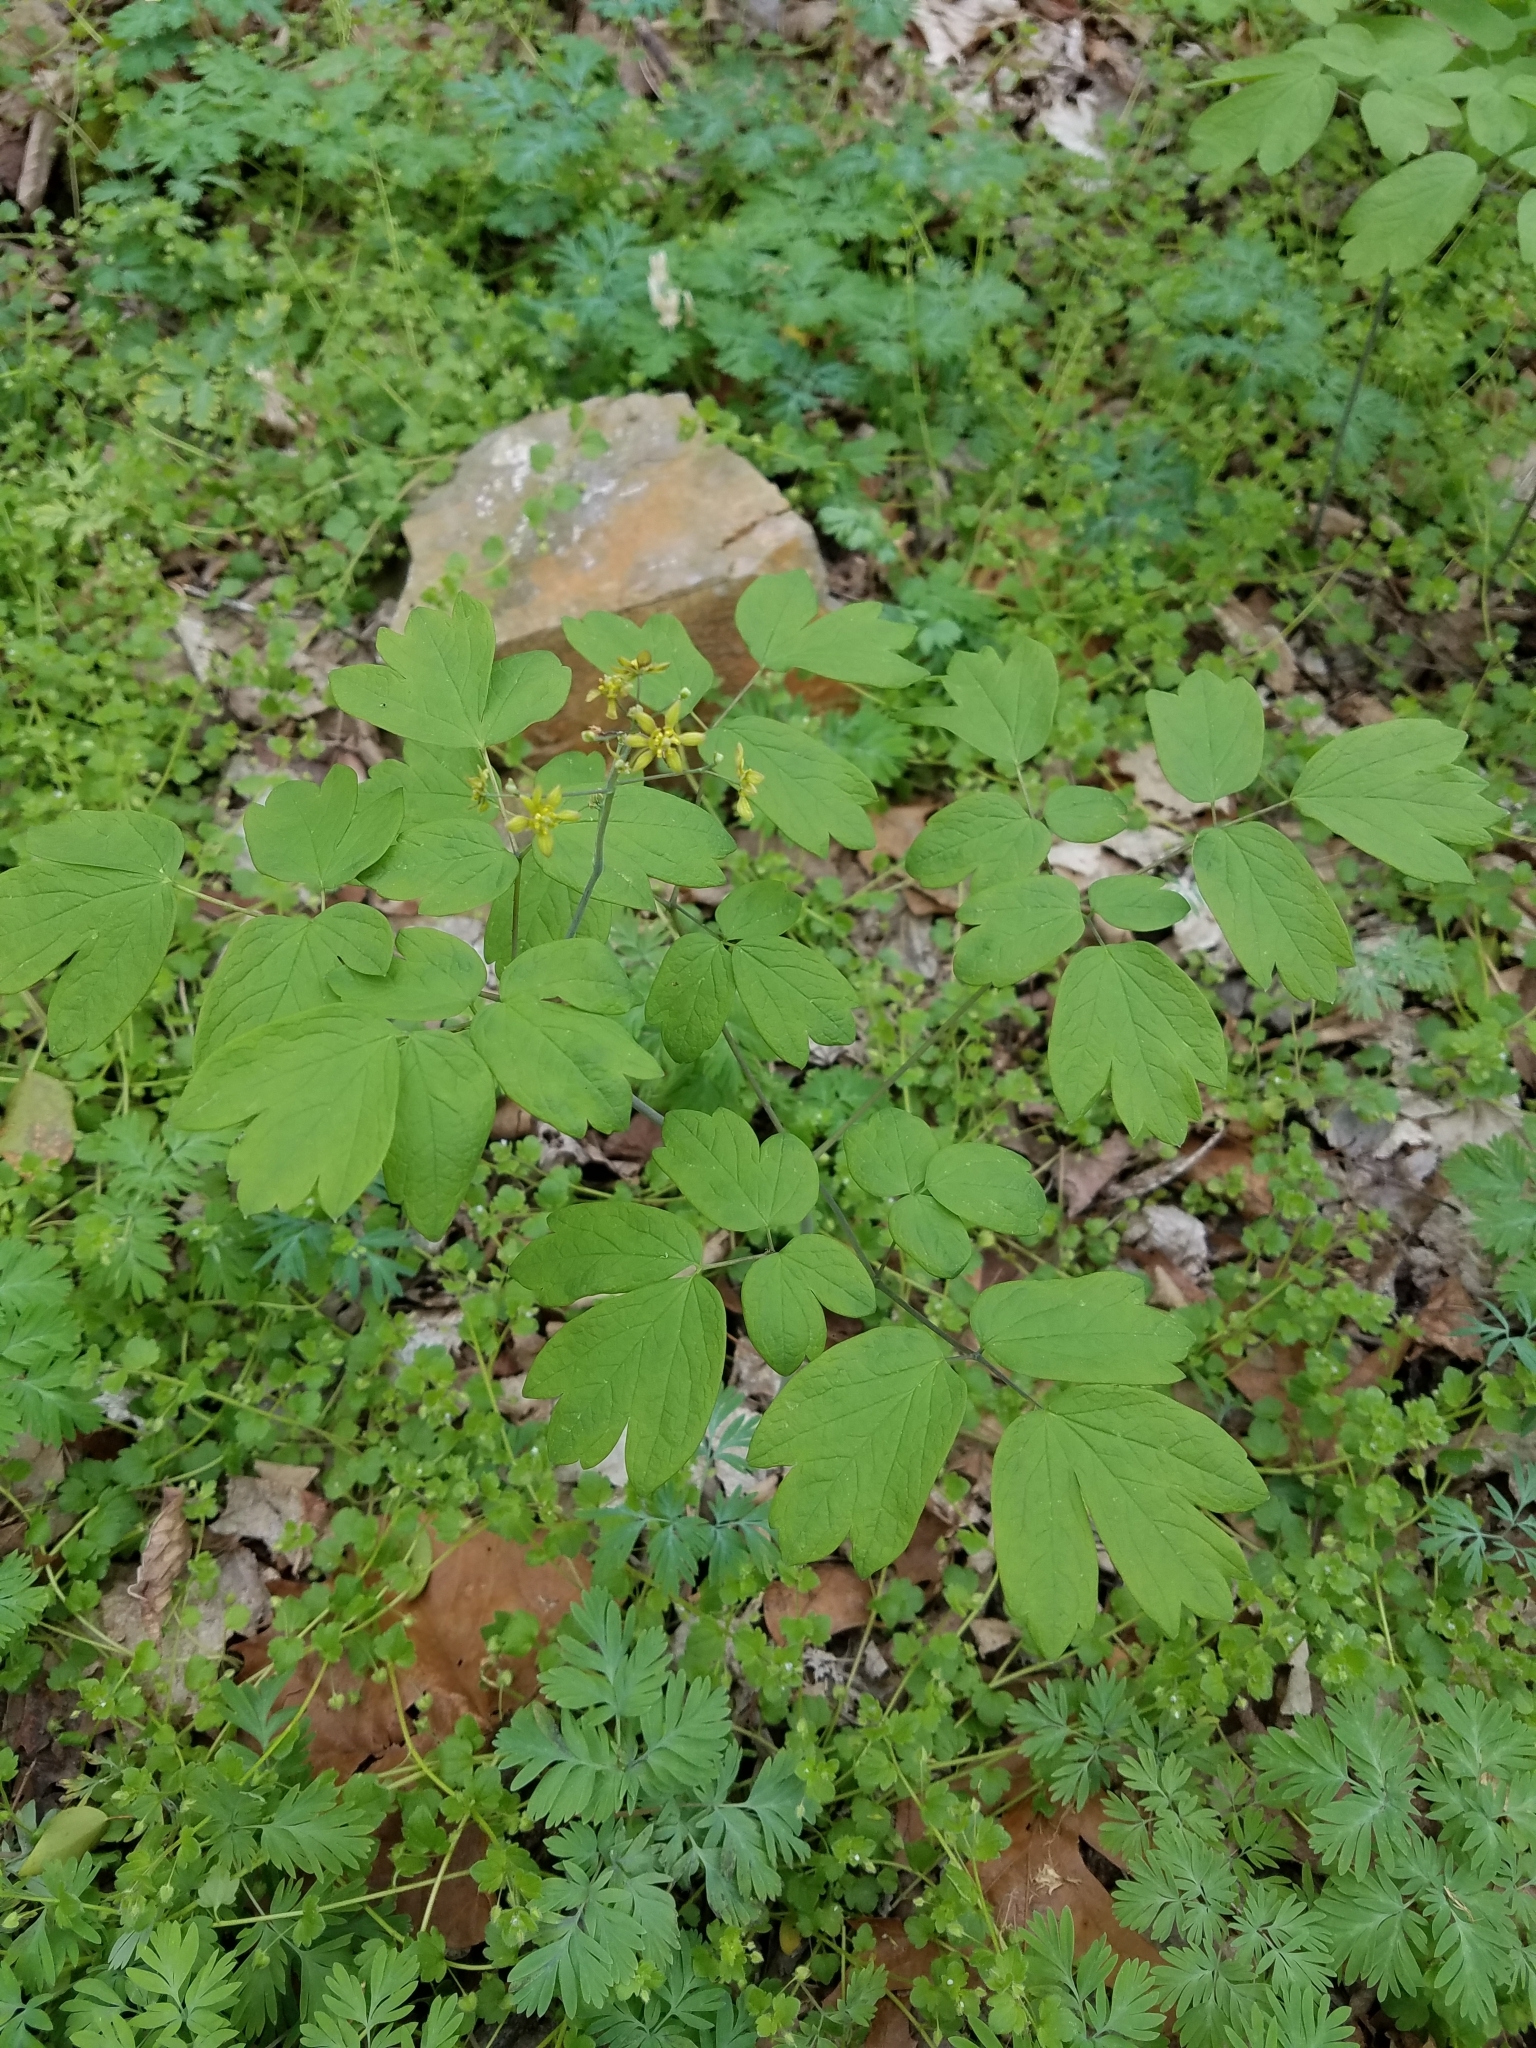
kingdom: Plantae
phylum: Tracheophyta
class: Magnoliopsida
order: Ranunculales
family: Berberidaceae
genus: Caulophyllum
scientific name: Caulophyllum thalictroides
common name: Blue cohosh
